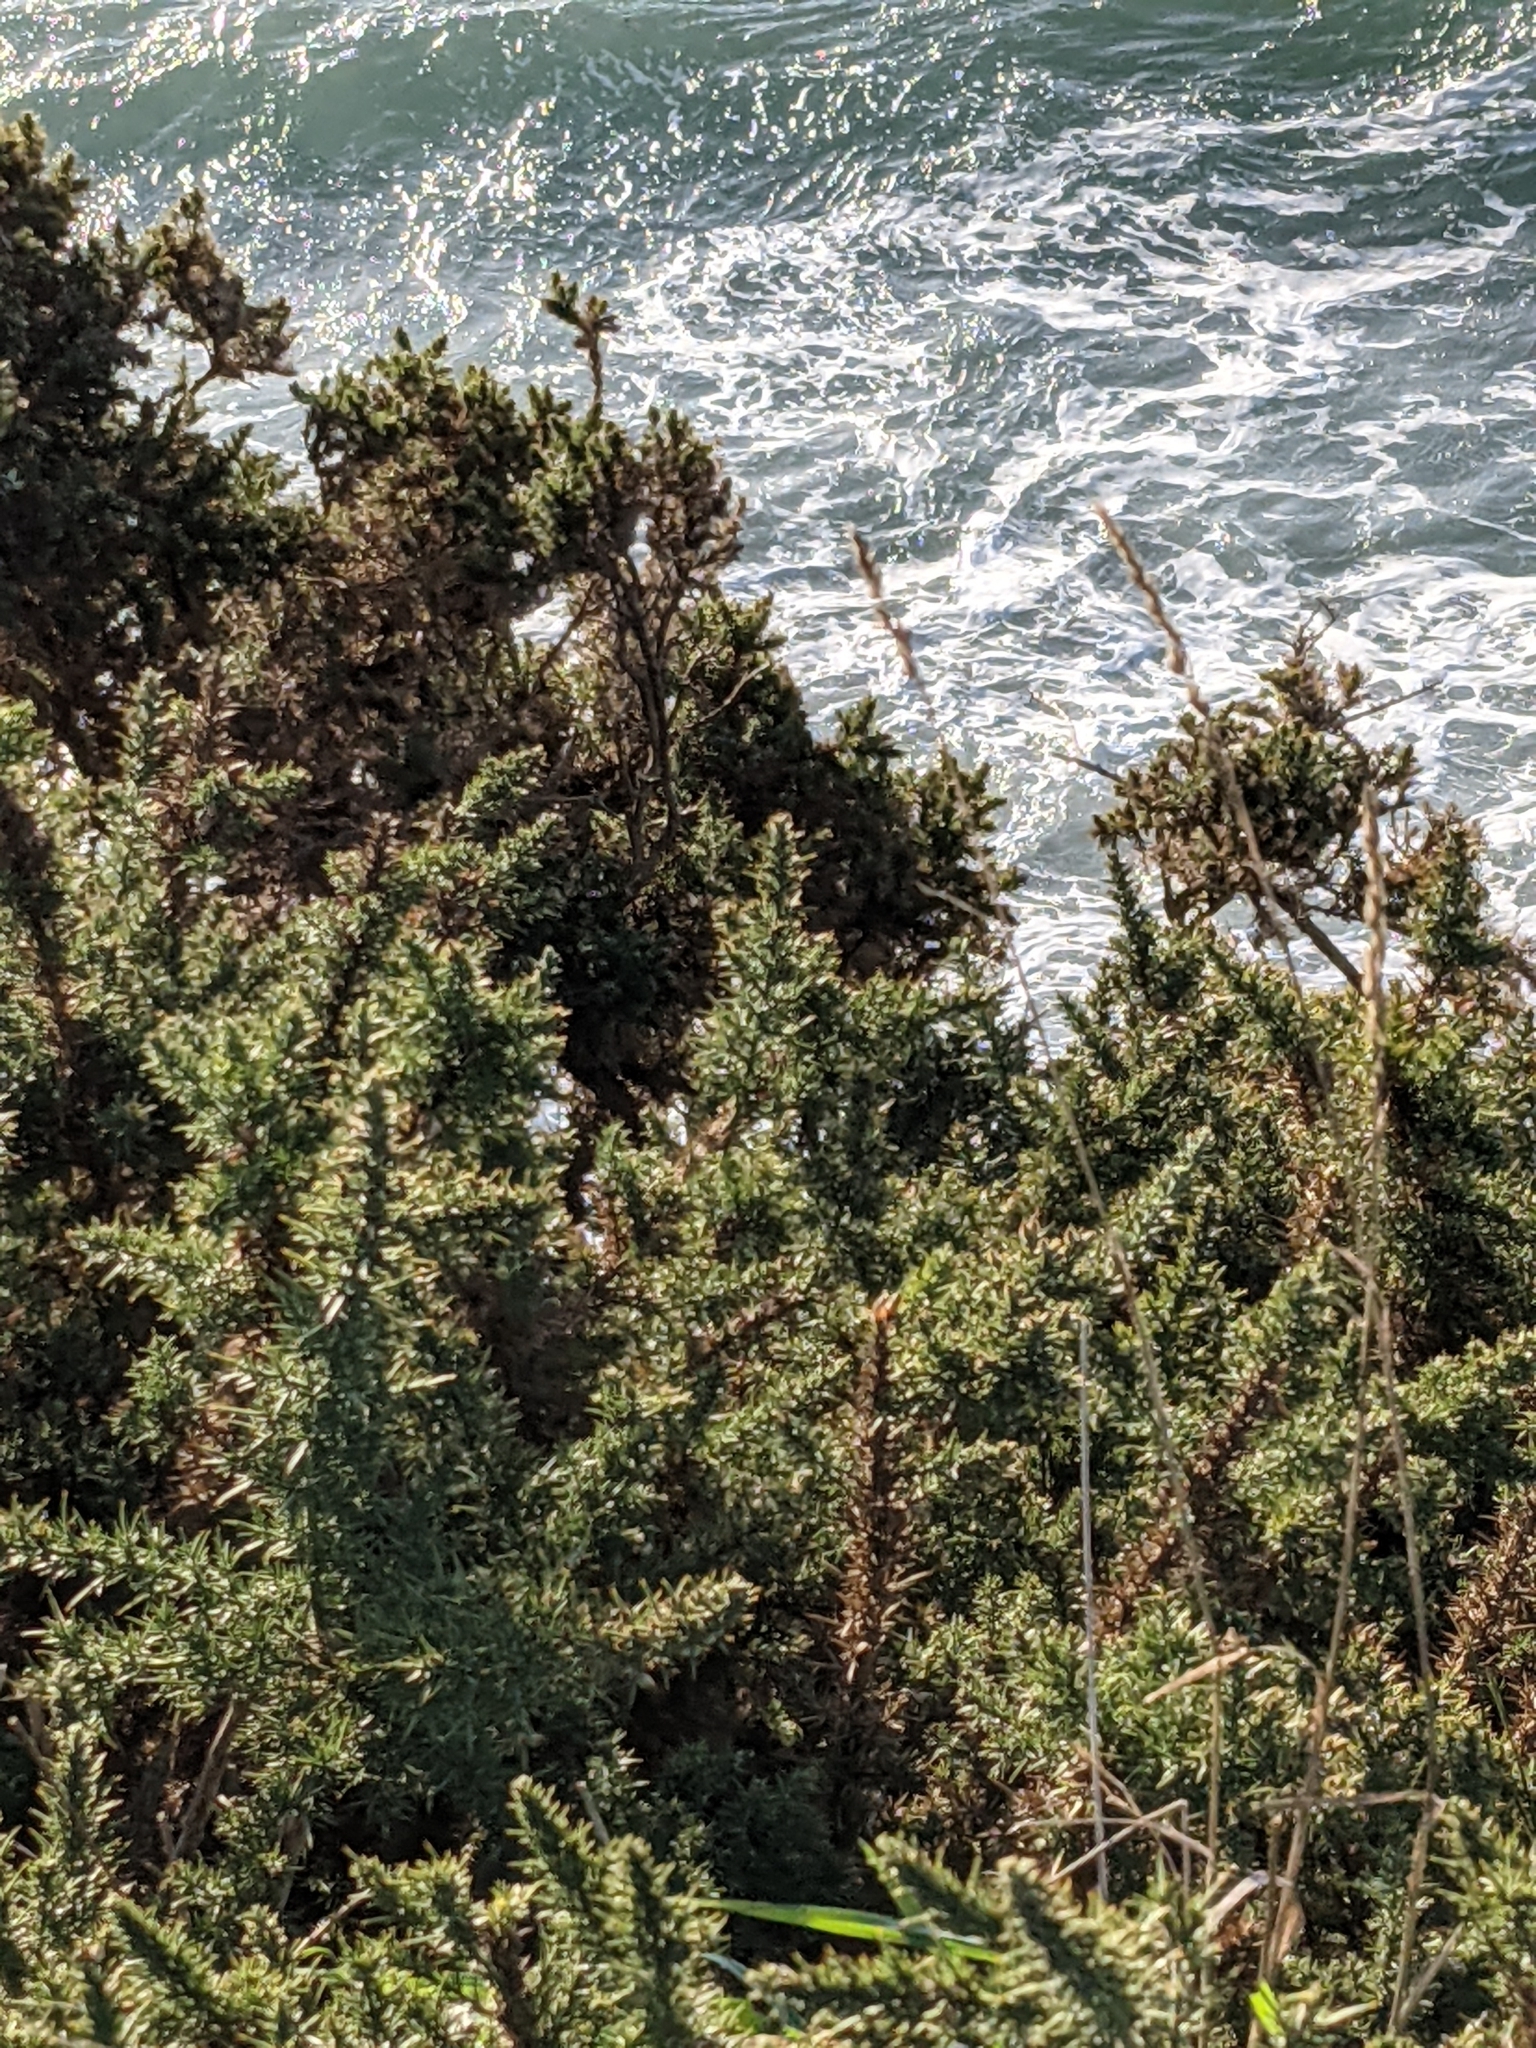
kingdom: Plantae
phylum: Tracheophyta
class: Magnoliopsida
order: Fabales
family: Fabaceae
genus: Ulex
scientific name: Ulex europaeus
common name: Common gorse
